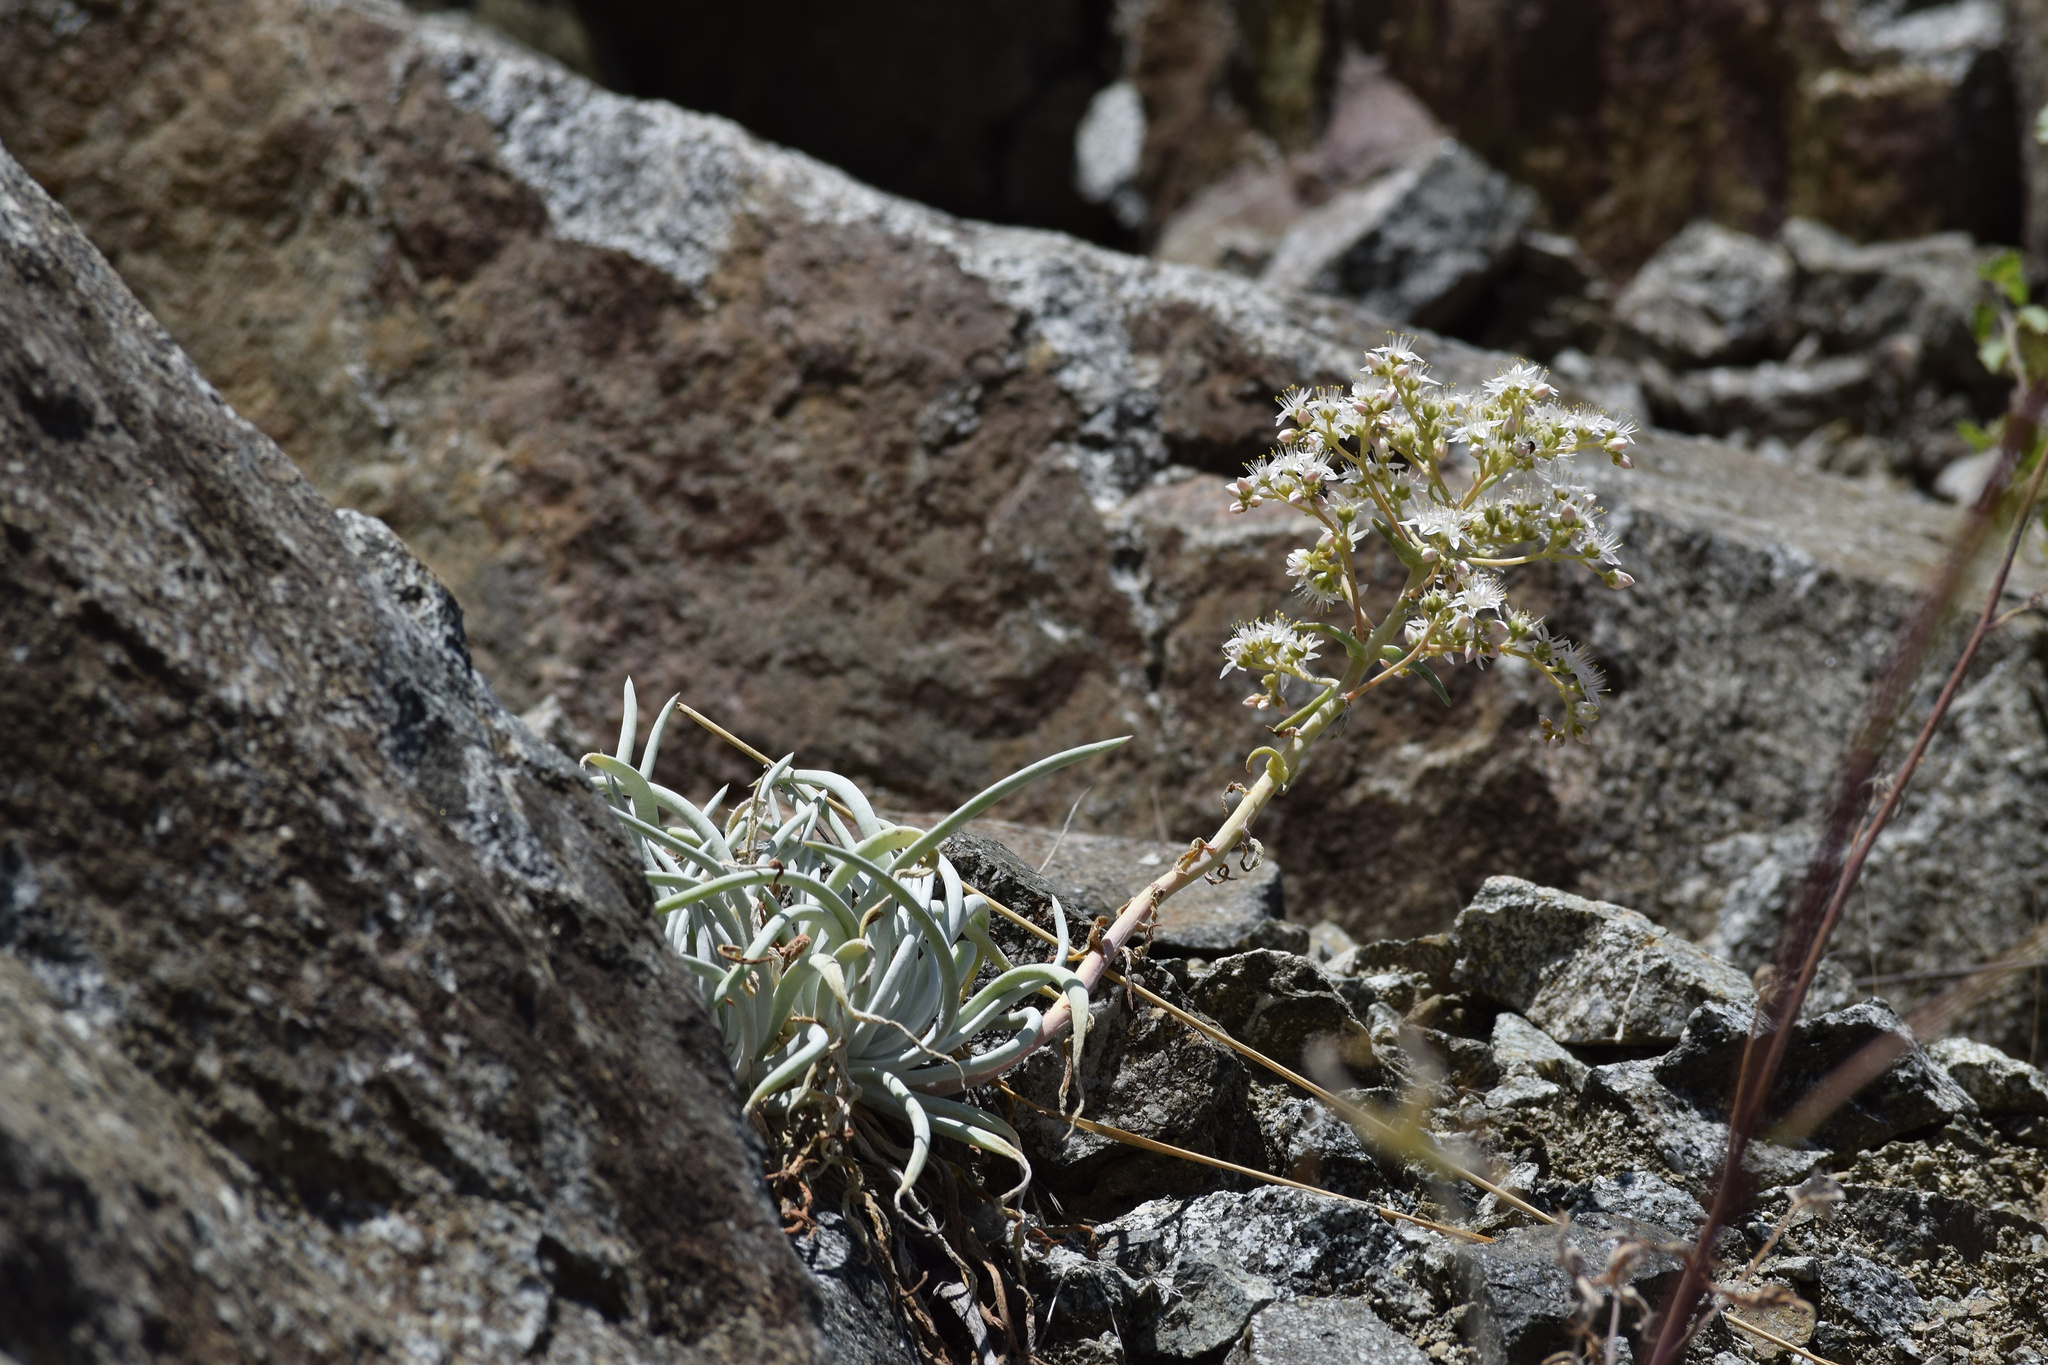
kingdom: Plantae
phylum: Tracheophyta
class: Magnoliopsida
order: Saxifragales
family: Crassulaceae
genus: Dudleya
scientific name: Dudleya densiflora
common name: San gabriel mountains dudleya
